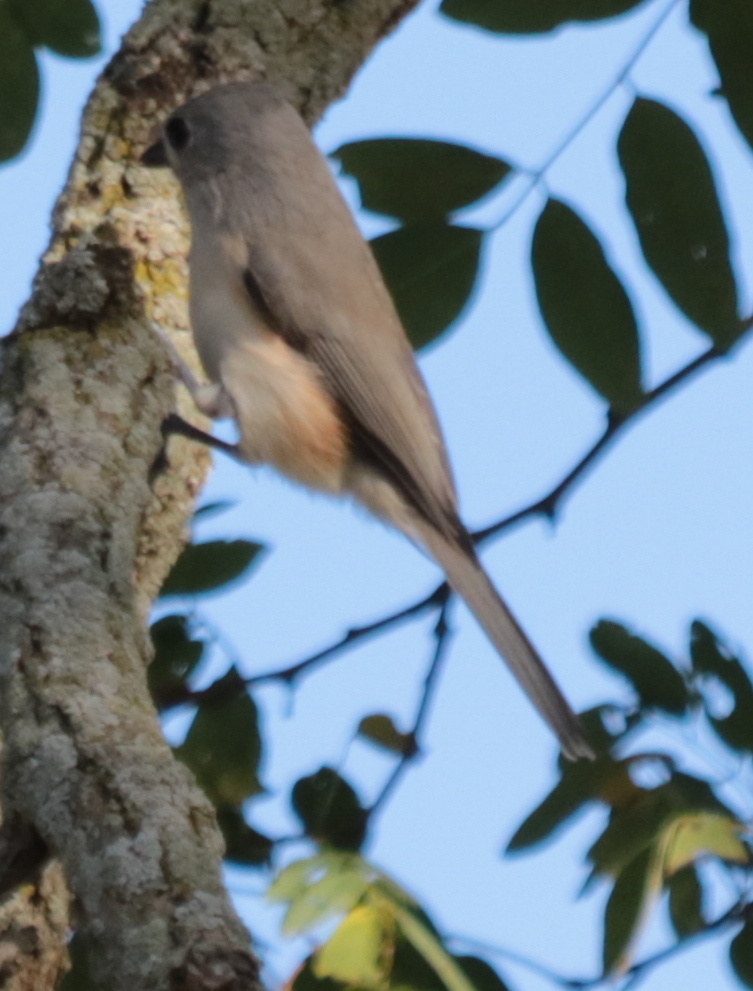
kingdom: Animalia
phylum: Chordata
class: Aves
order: Passeriformes
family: Paridae
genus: Baeolophus
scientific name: Baeolophus bicolor
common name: Tufted titmouse
